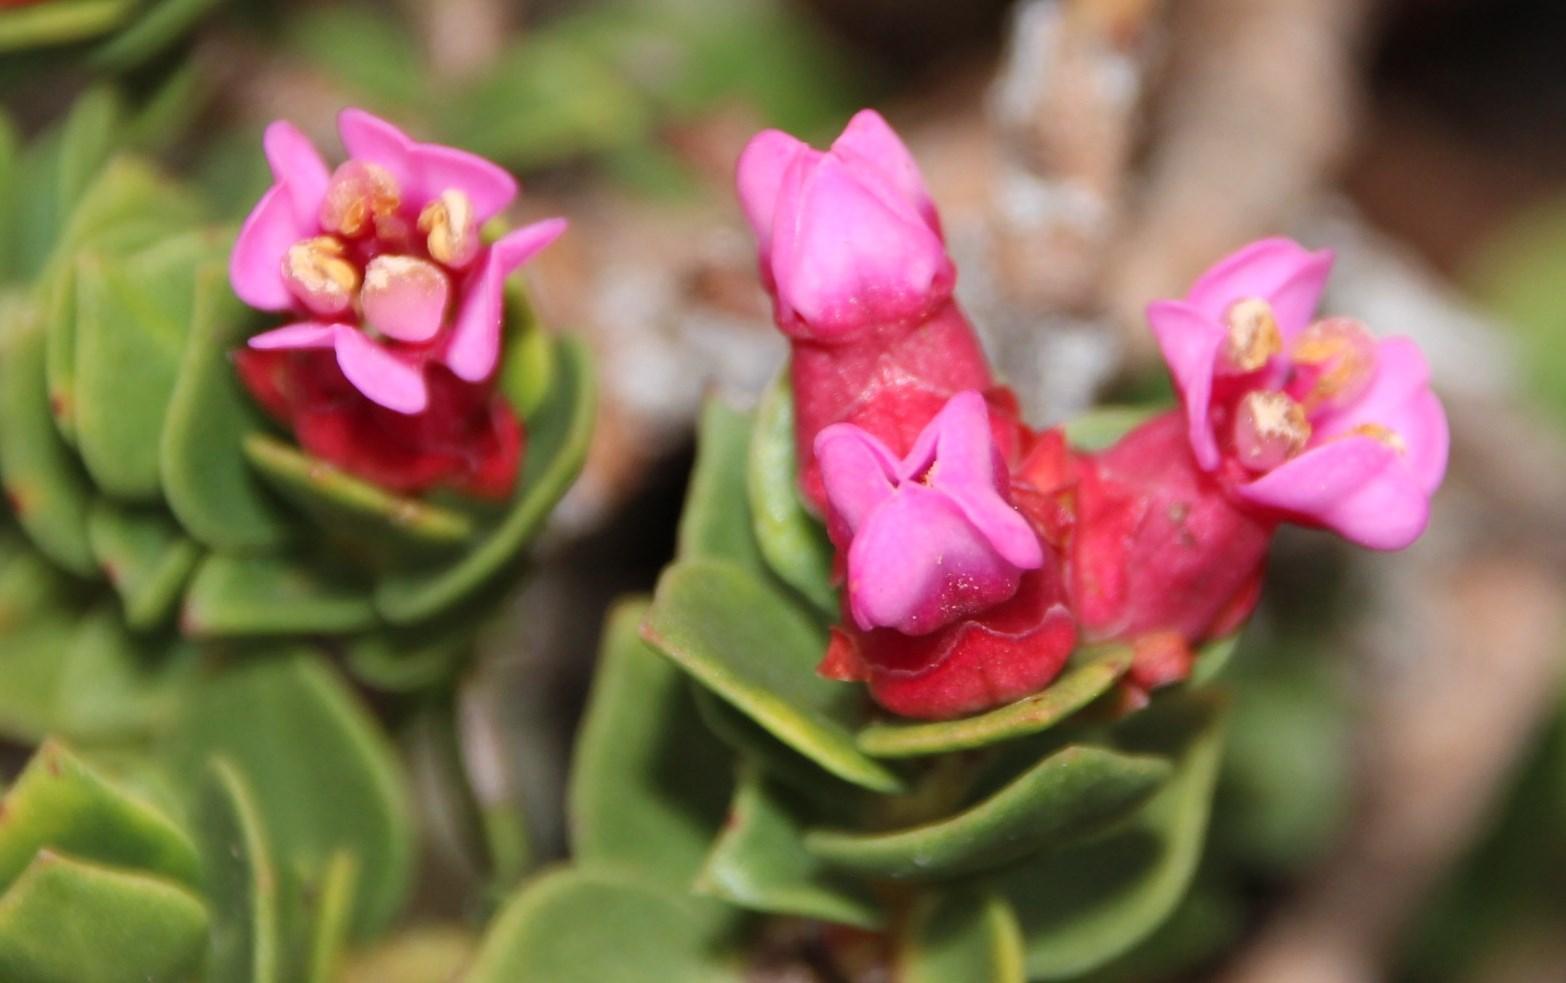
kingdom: Plantae
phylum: Tracheophyta
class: Magnoliopsida
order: Myrtales
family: Penaeaceae
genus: Brachysiphon
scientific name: Brachysiphon fucatus
